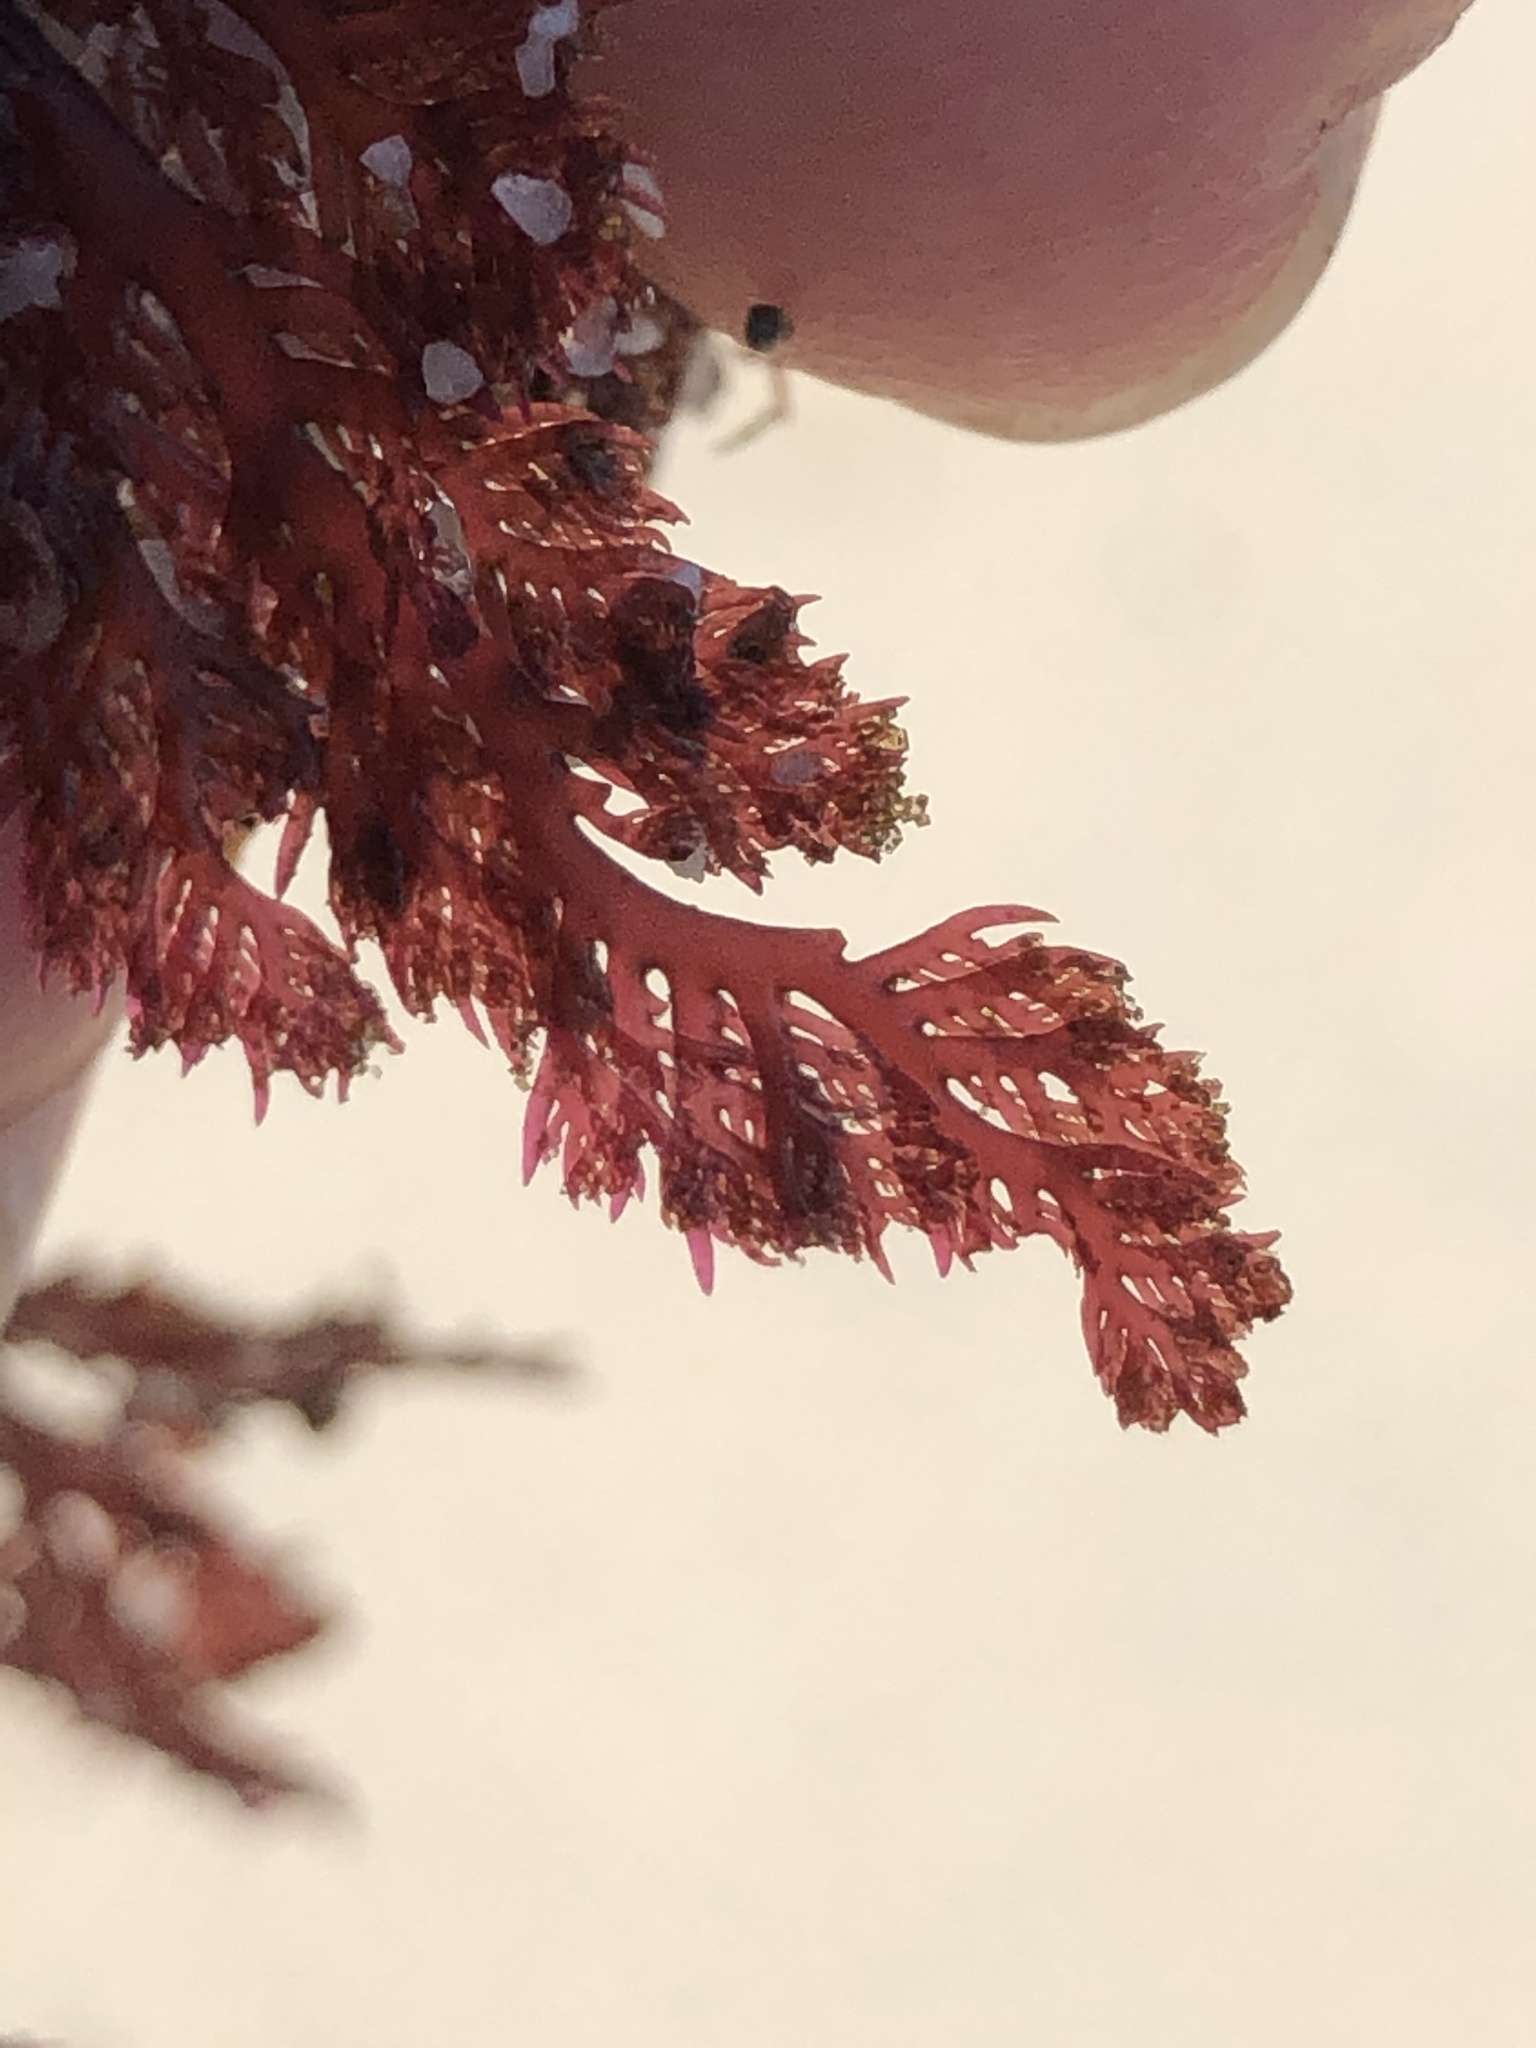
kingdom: Plantae
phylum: Rhodophyta
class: Florideophyceae
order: Plocamiales
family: Plocamiaceae
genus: Plocamium
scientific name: Plocamium cartilagineum
